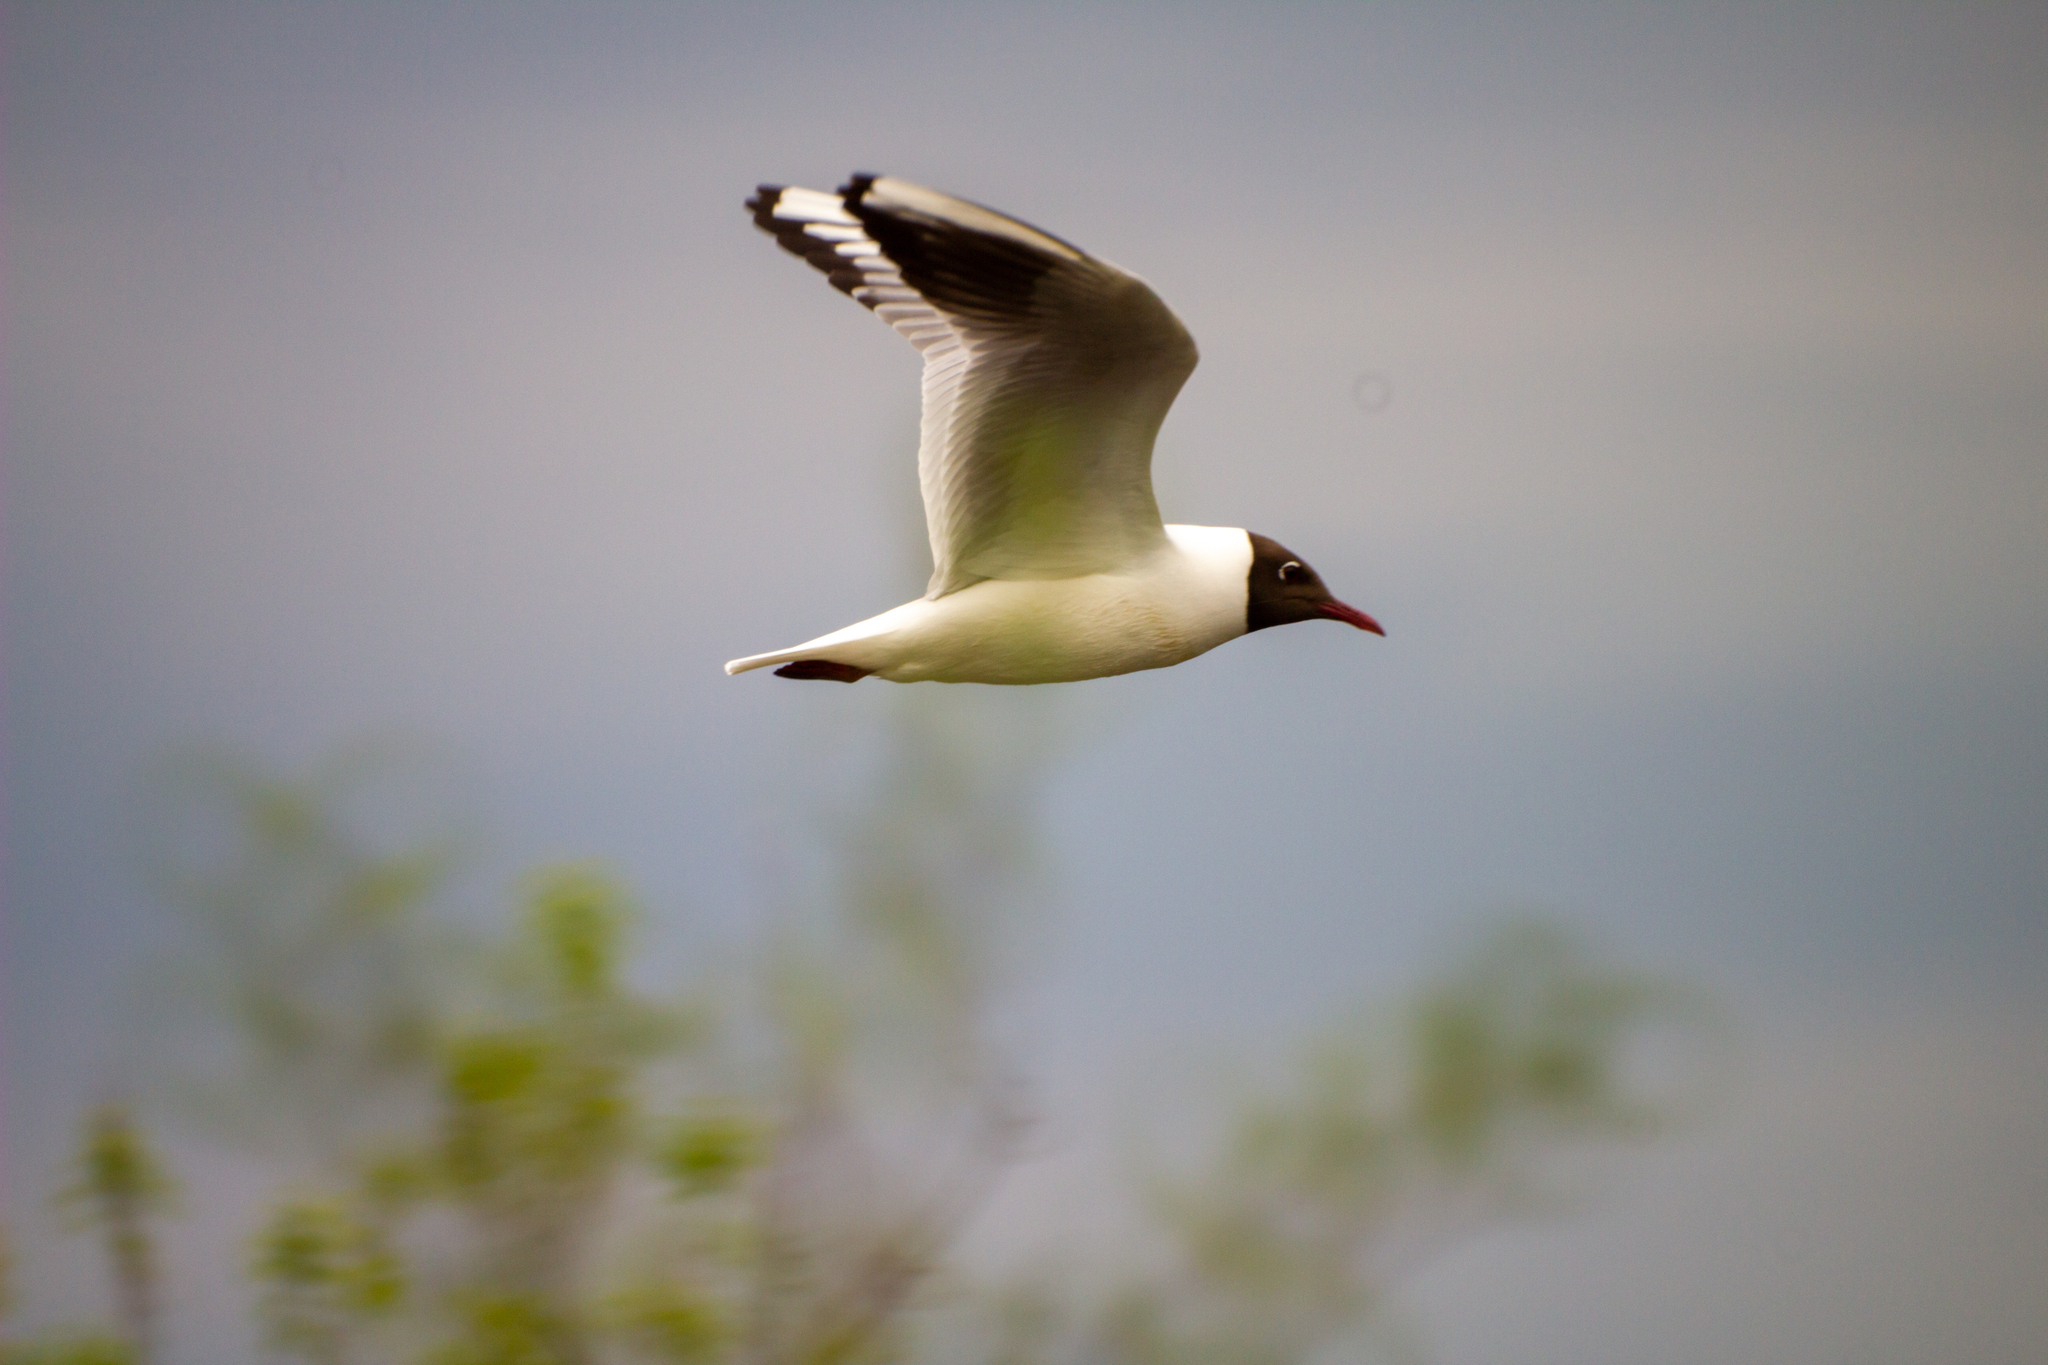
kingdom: Animalia
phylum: Chordata
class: Aves
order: Charadriiformes
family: Laridae
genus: Chroicocephalus
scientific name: Chroicocephalus ridibundus
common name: Black-headed gull
